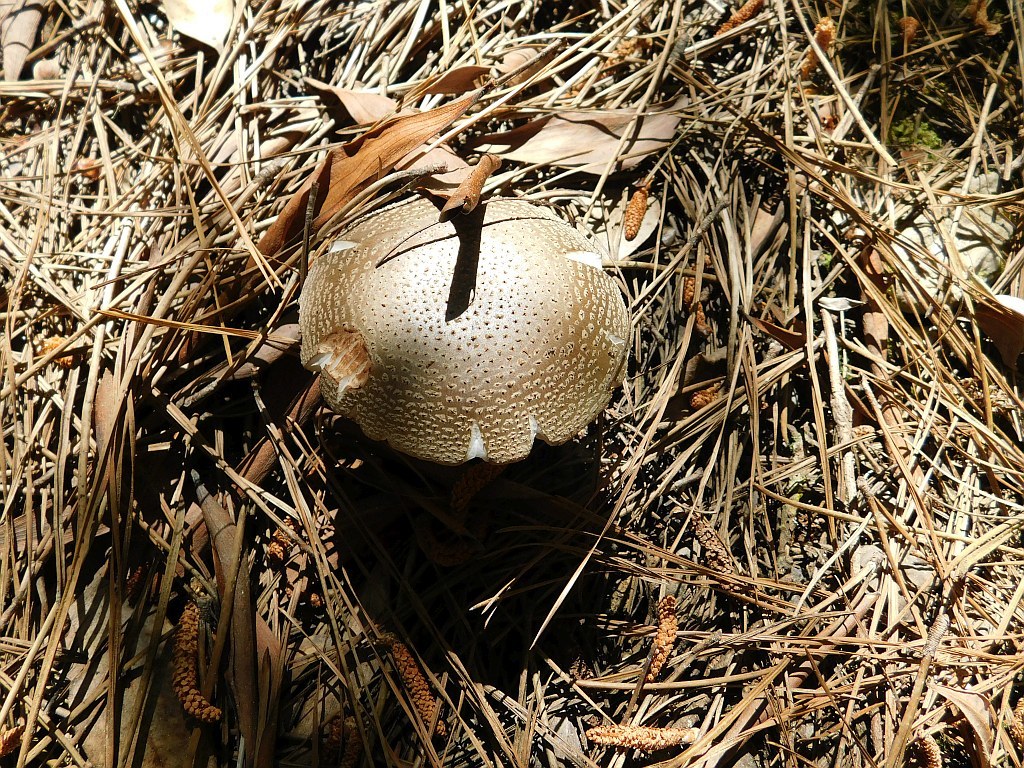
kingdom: Fungi
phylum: Basidiomycota
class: Agaricomycetes
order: Agaricales
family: Amanitaceae
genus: Amanita
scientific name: Amanita rubescens
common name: Blusher
